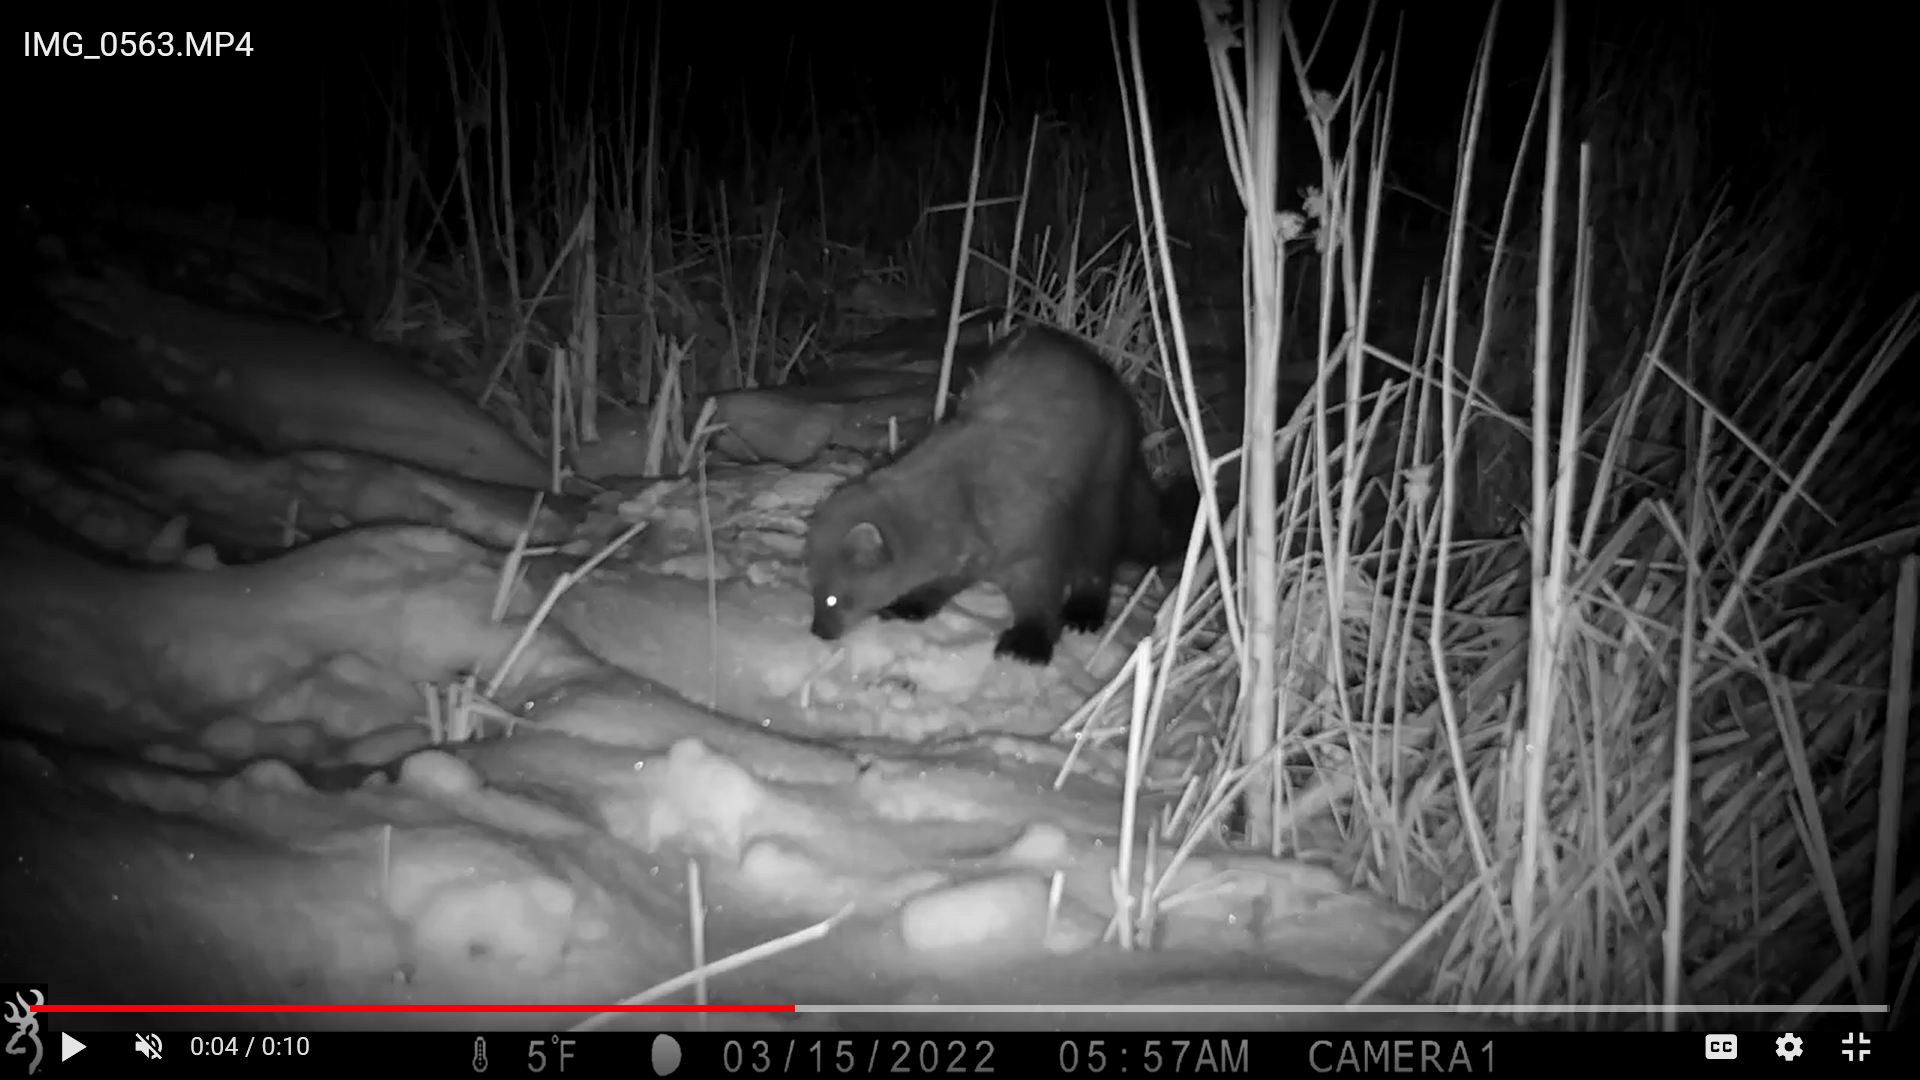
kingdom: Animalia
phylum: Chordata
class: Mammalia
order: Carnivora
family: Mustelidae
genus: Pekania
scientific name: Pekania pennanti
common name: Fisher
